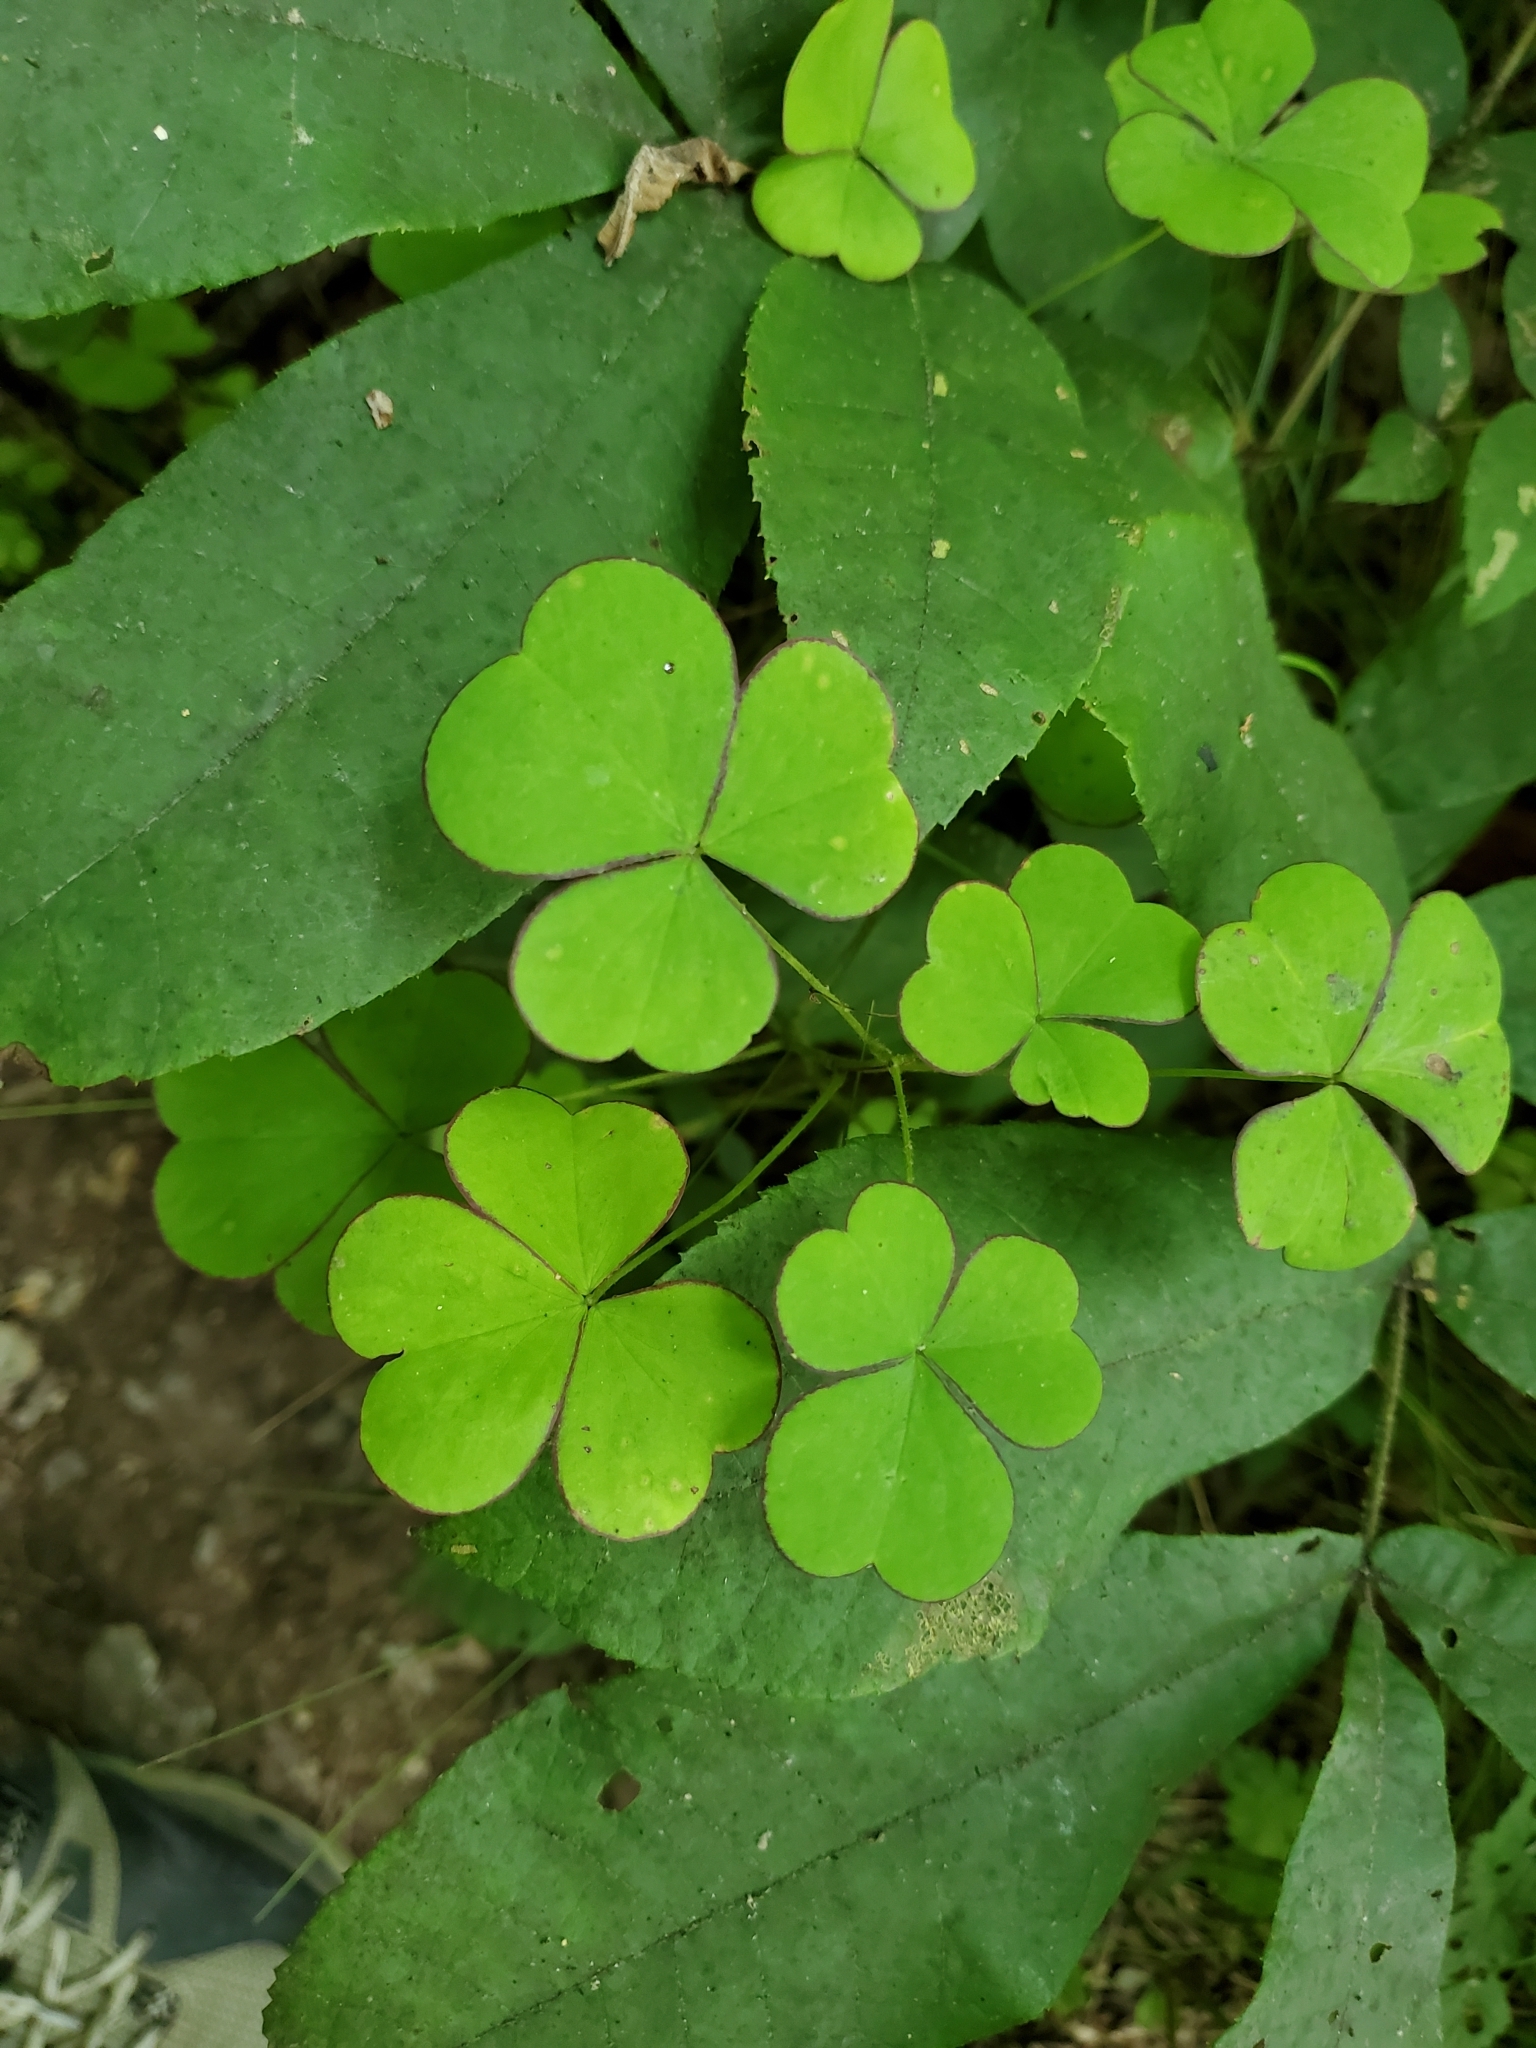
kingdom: Plantae
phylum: Tracheophyta
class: Magnoliopsida
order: Oxalidales
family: Oxalidaceae
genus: Oxalis
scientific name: Oxalis grandis
